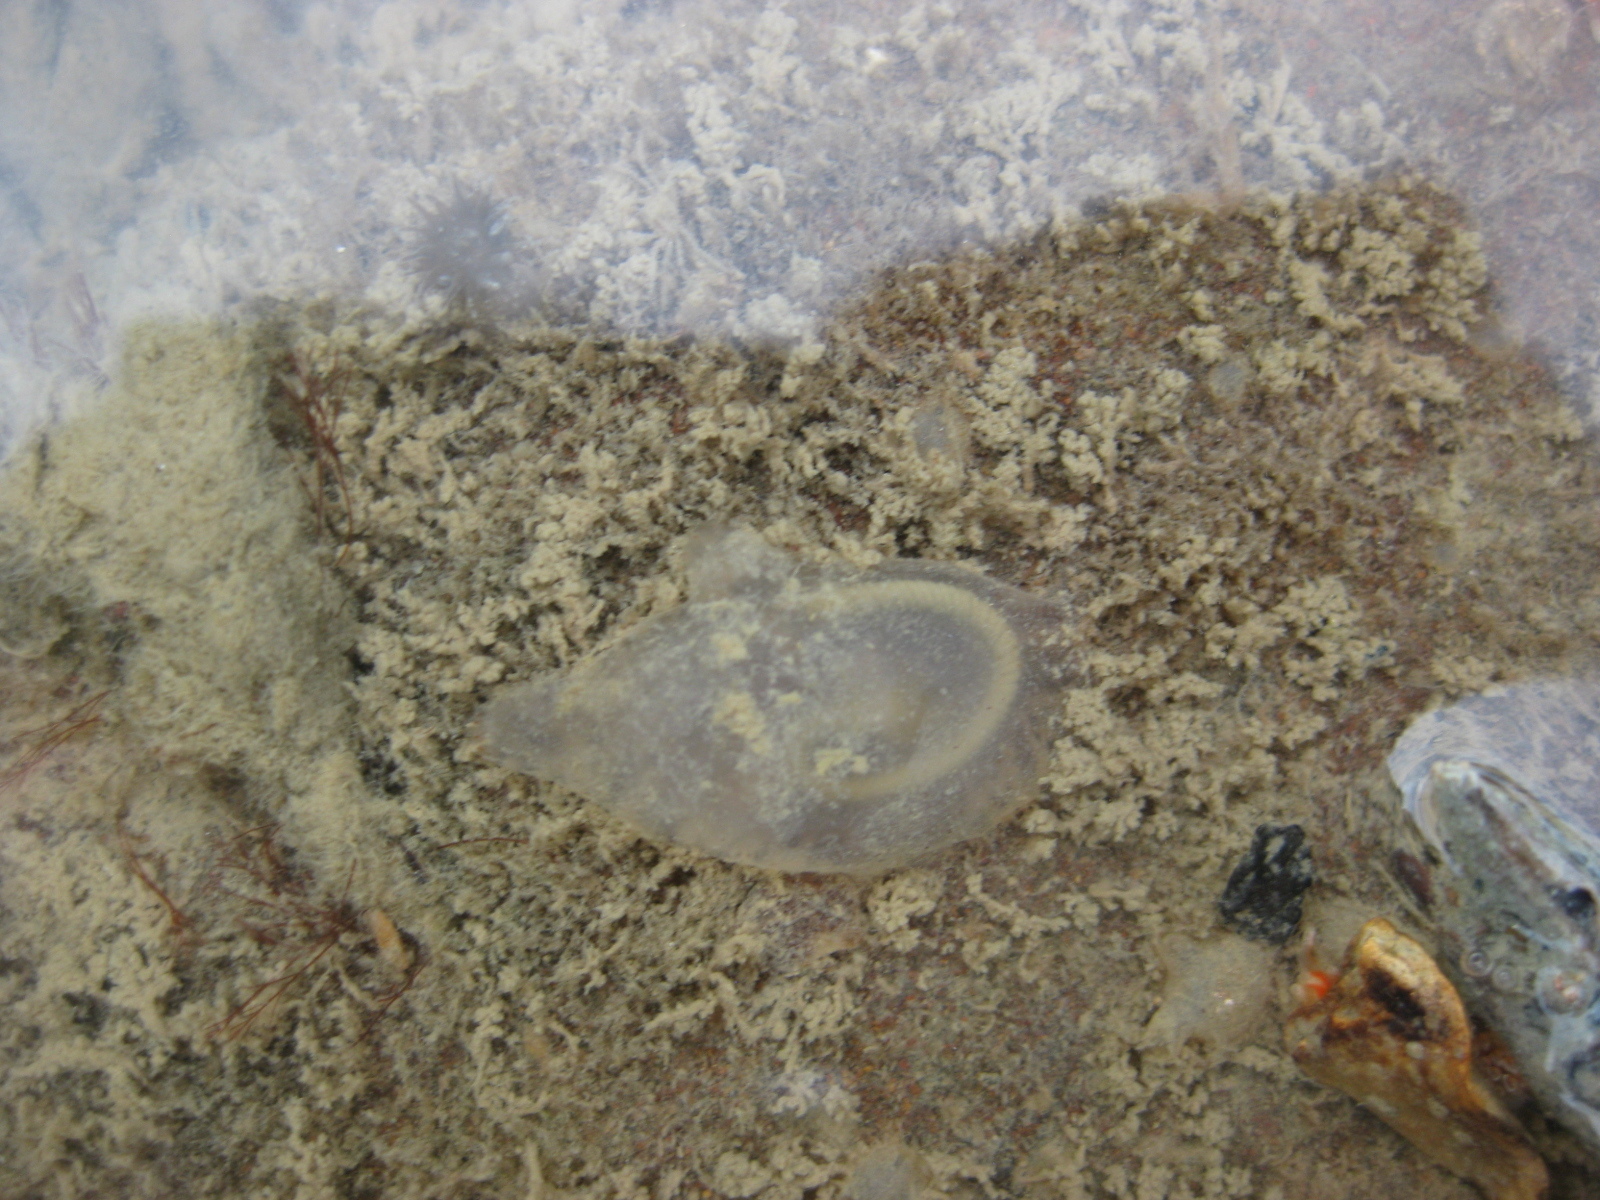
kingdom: Animalia
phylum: Chordata
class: Ascidiacea
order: Phlebobranchia
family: Agneziidae
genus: Agnezia
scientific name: Agnezia glaciata
